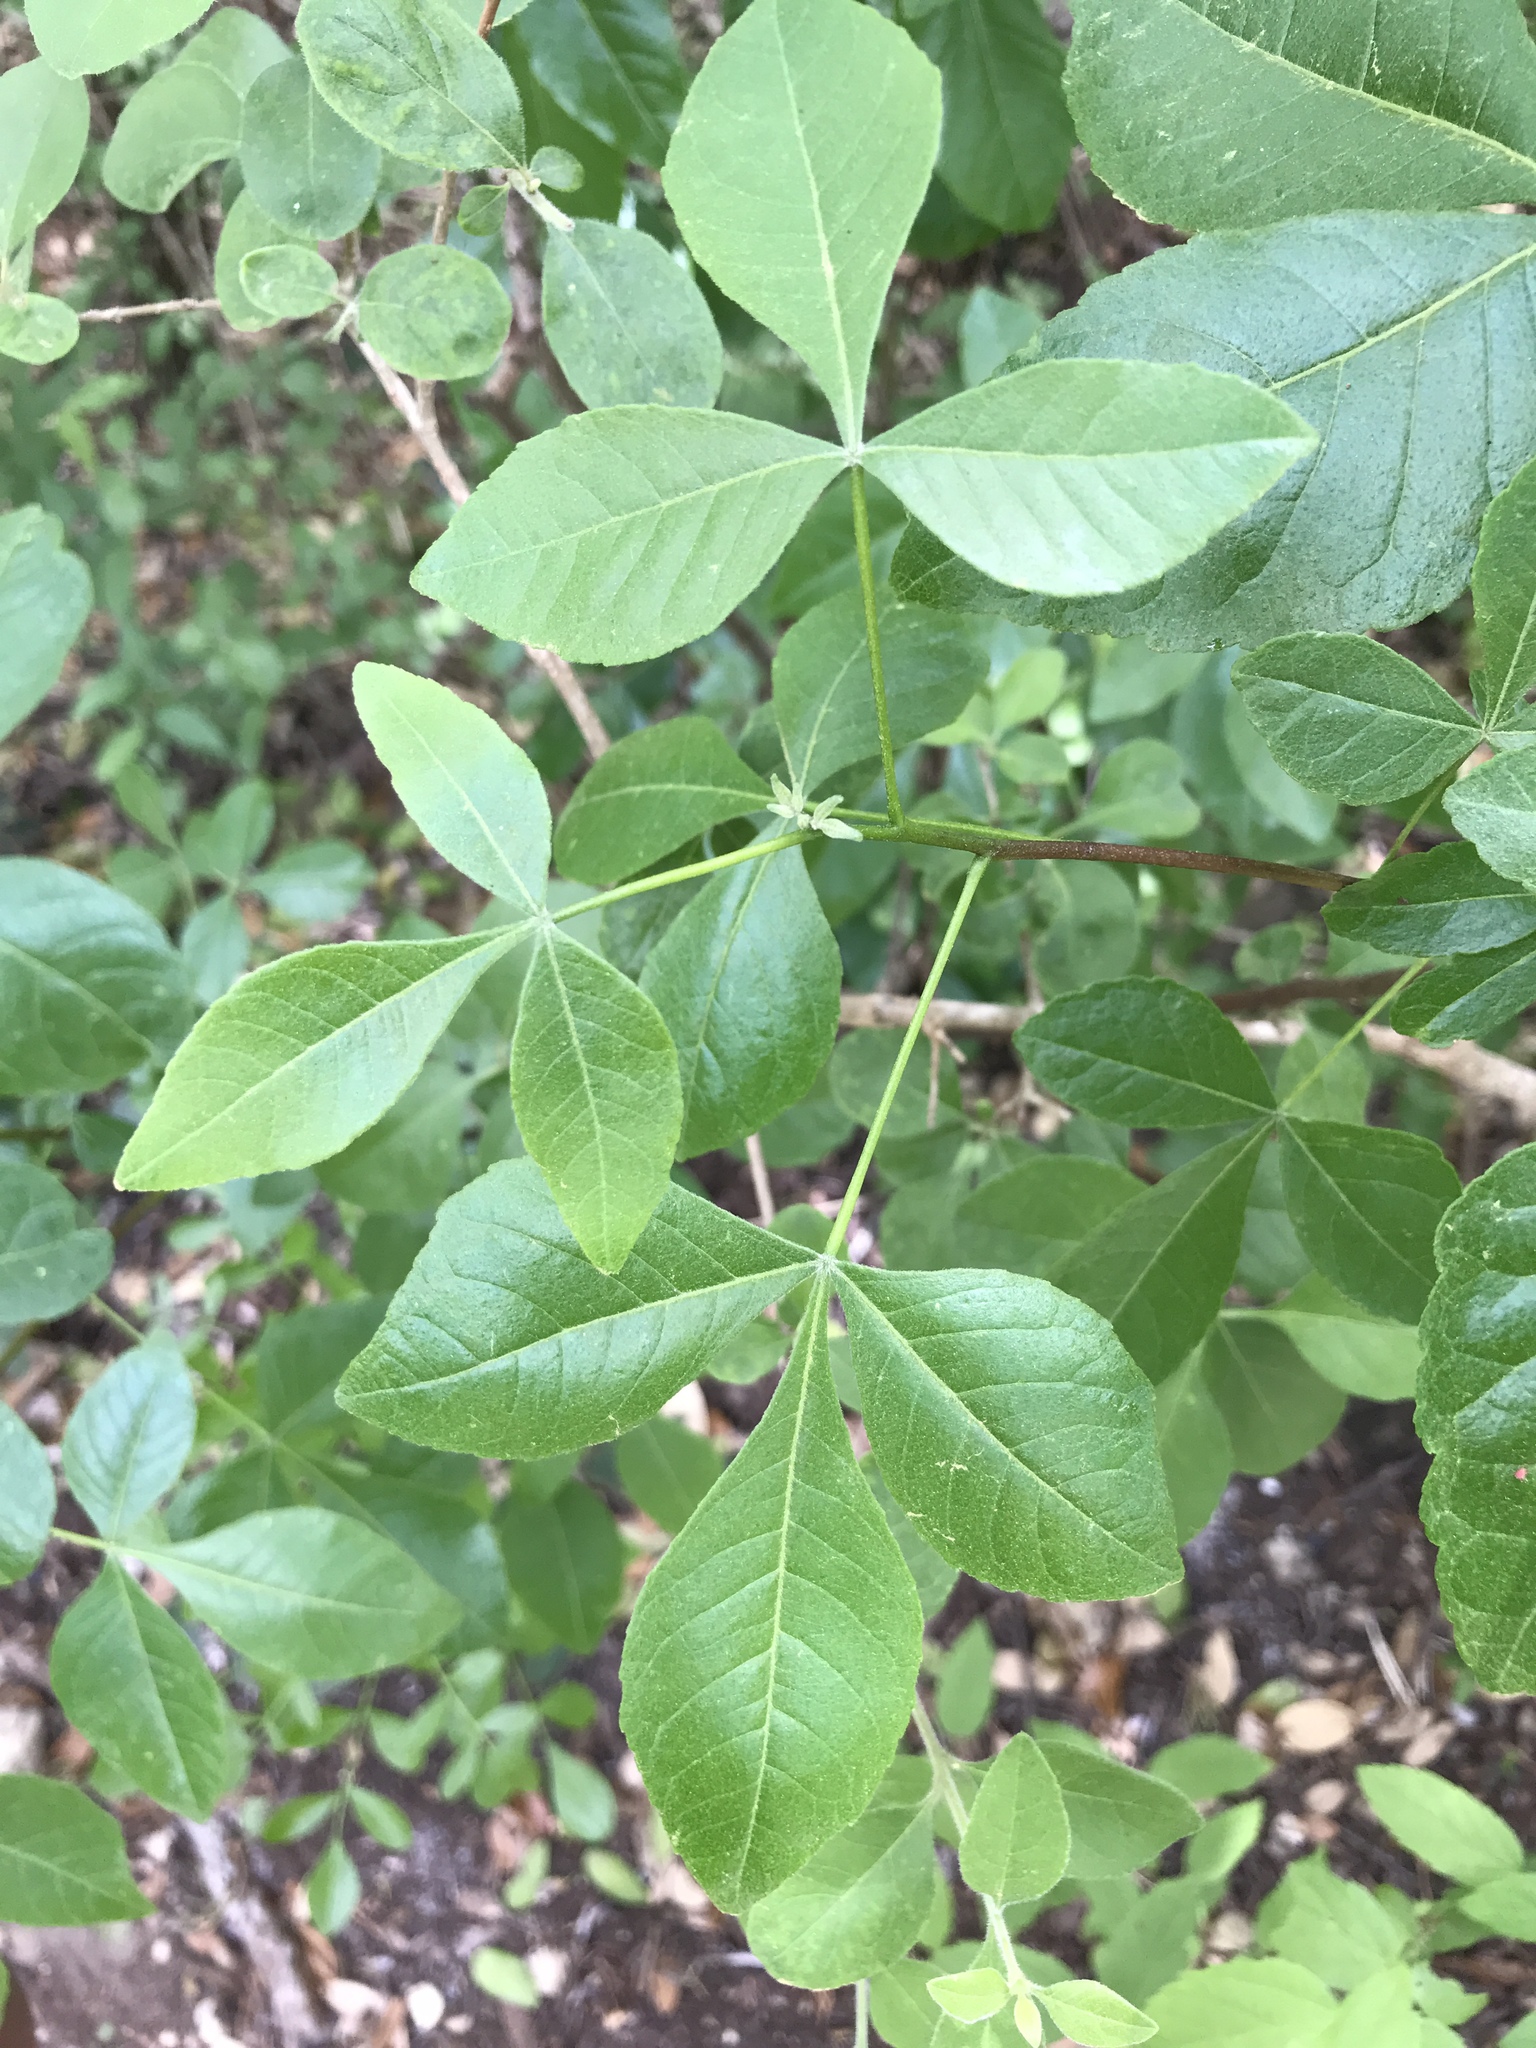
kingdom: Plantae
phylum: Tracheophyta
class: Magnoliopsida
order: Sapindales
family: Rutaceae
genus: Ptelea
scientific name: Ptelea trifoliata
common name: Common hop-tree
